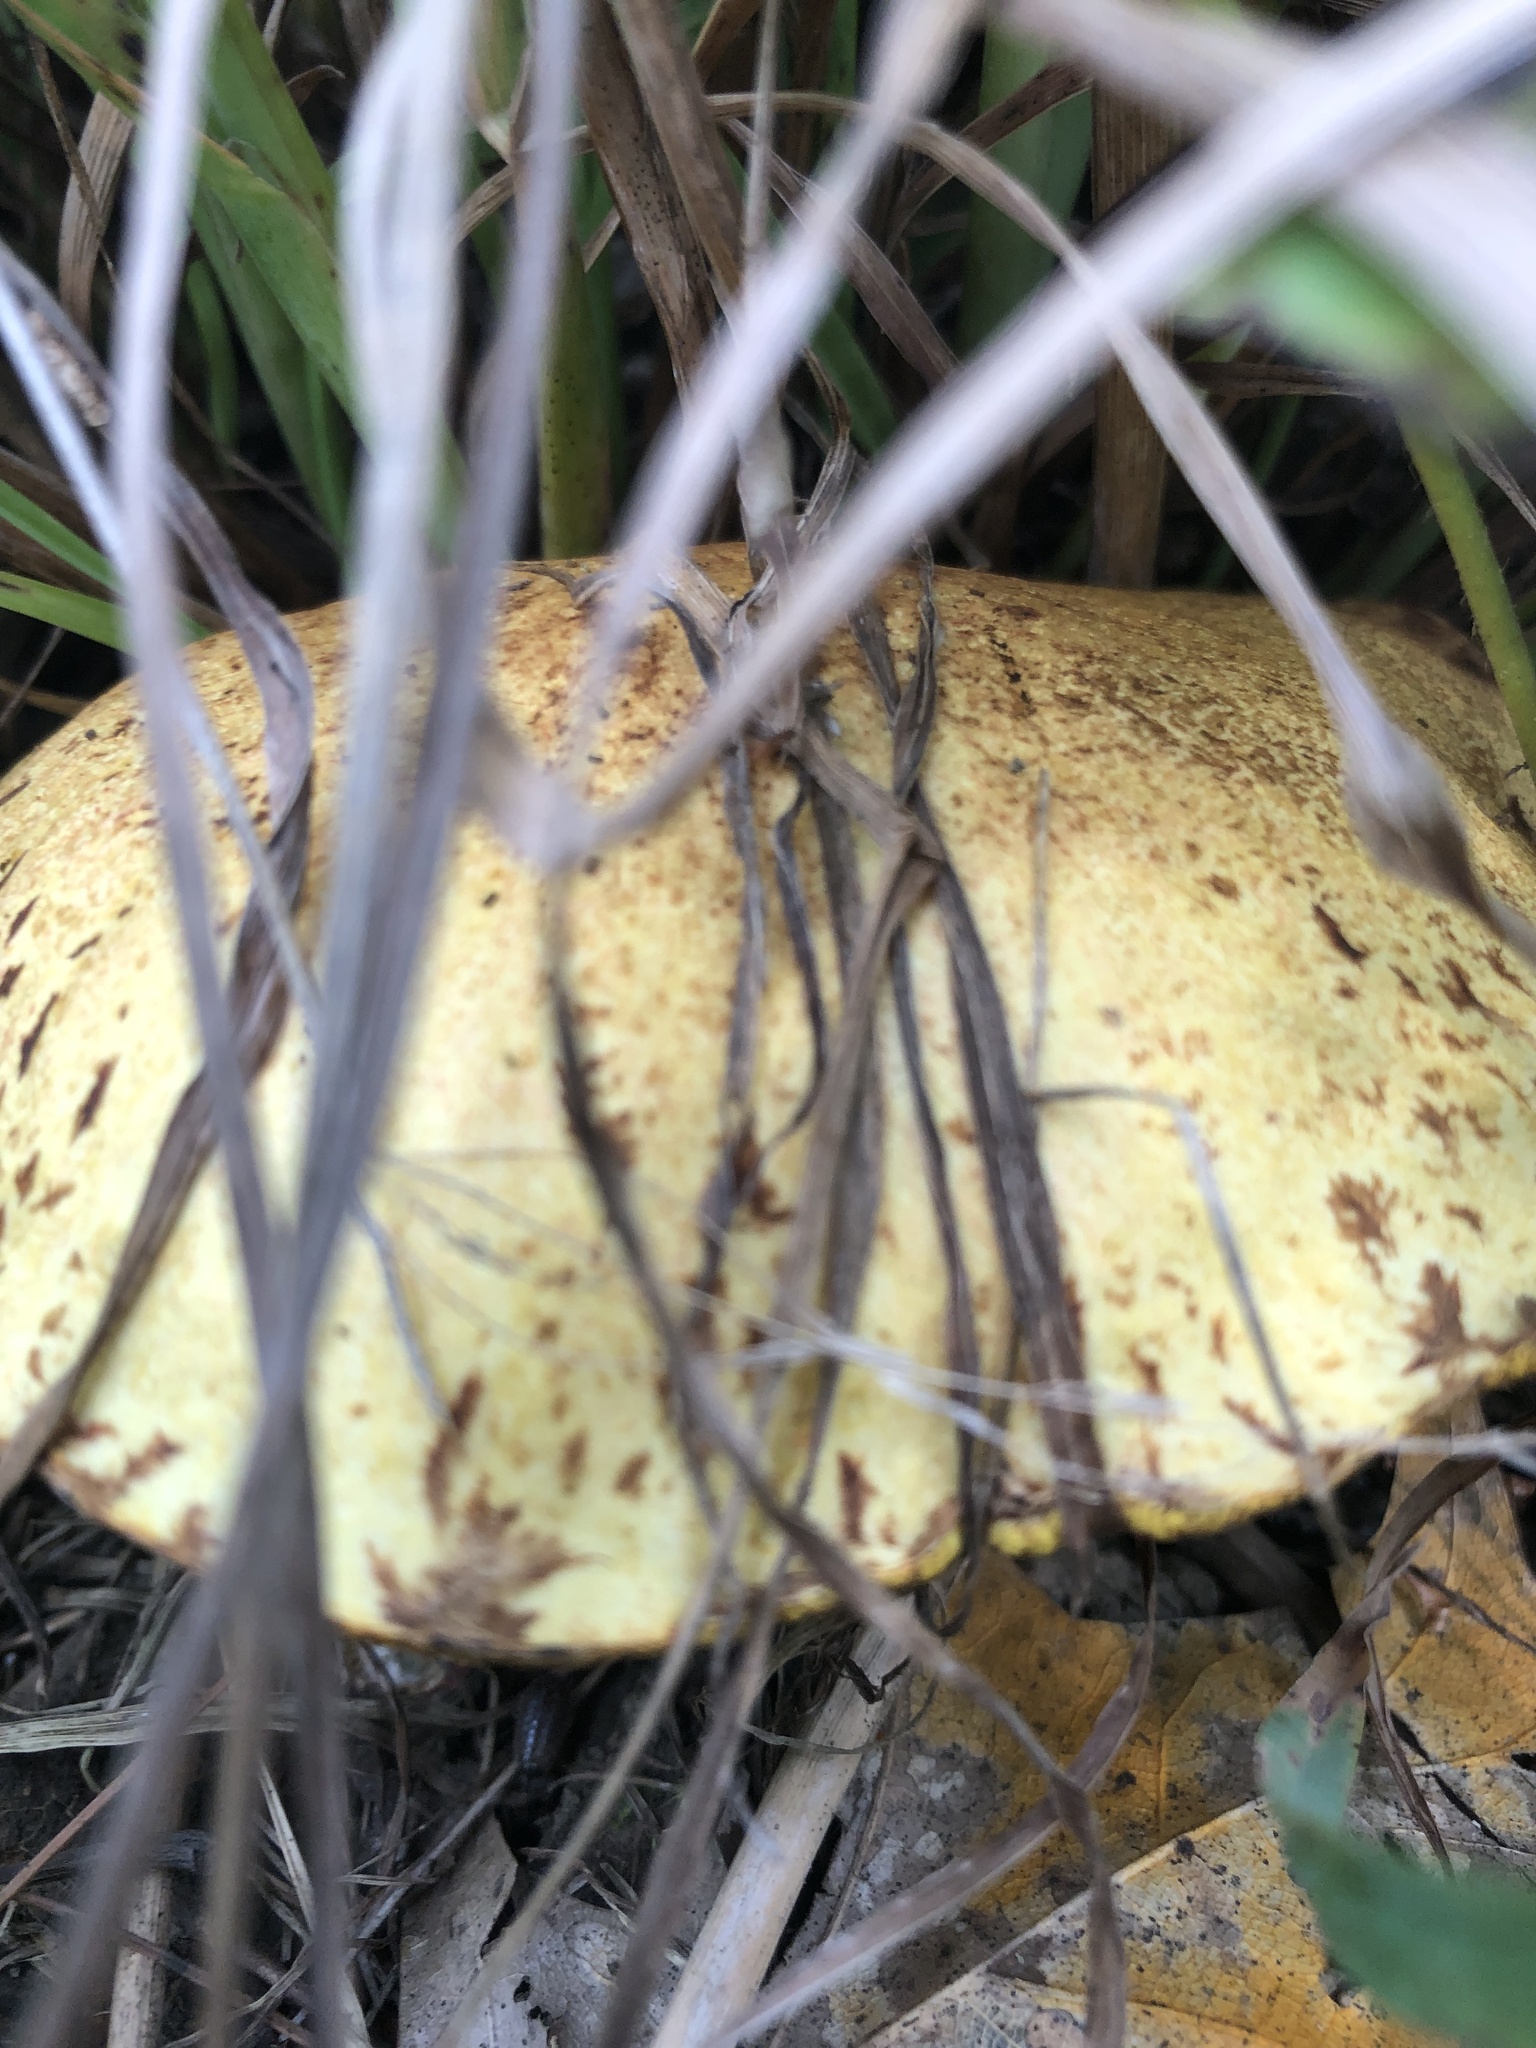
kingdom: Fungi
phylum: Basidiomycota
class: Agaricomycetes
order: Boletales
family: Suillaceae
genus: Suillus
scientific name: Suillus americanus
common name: Chicken fat mushroom
